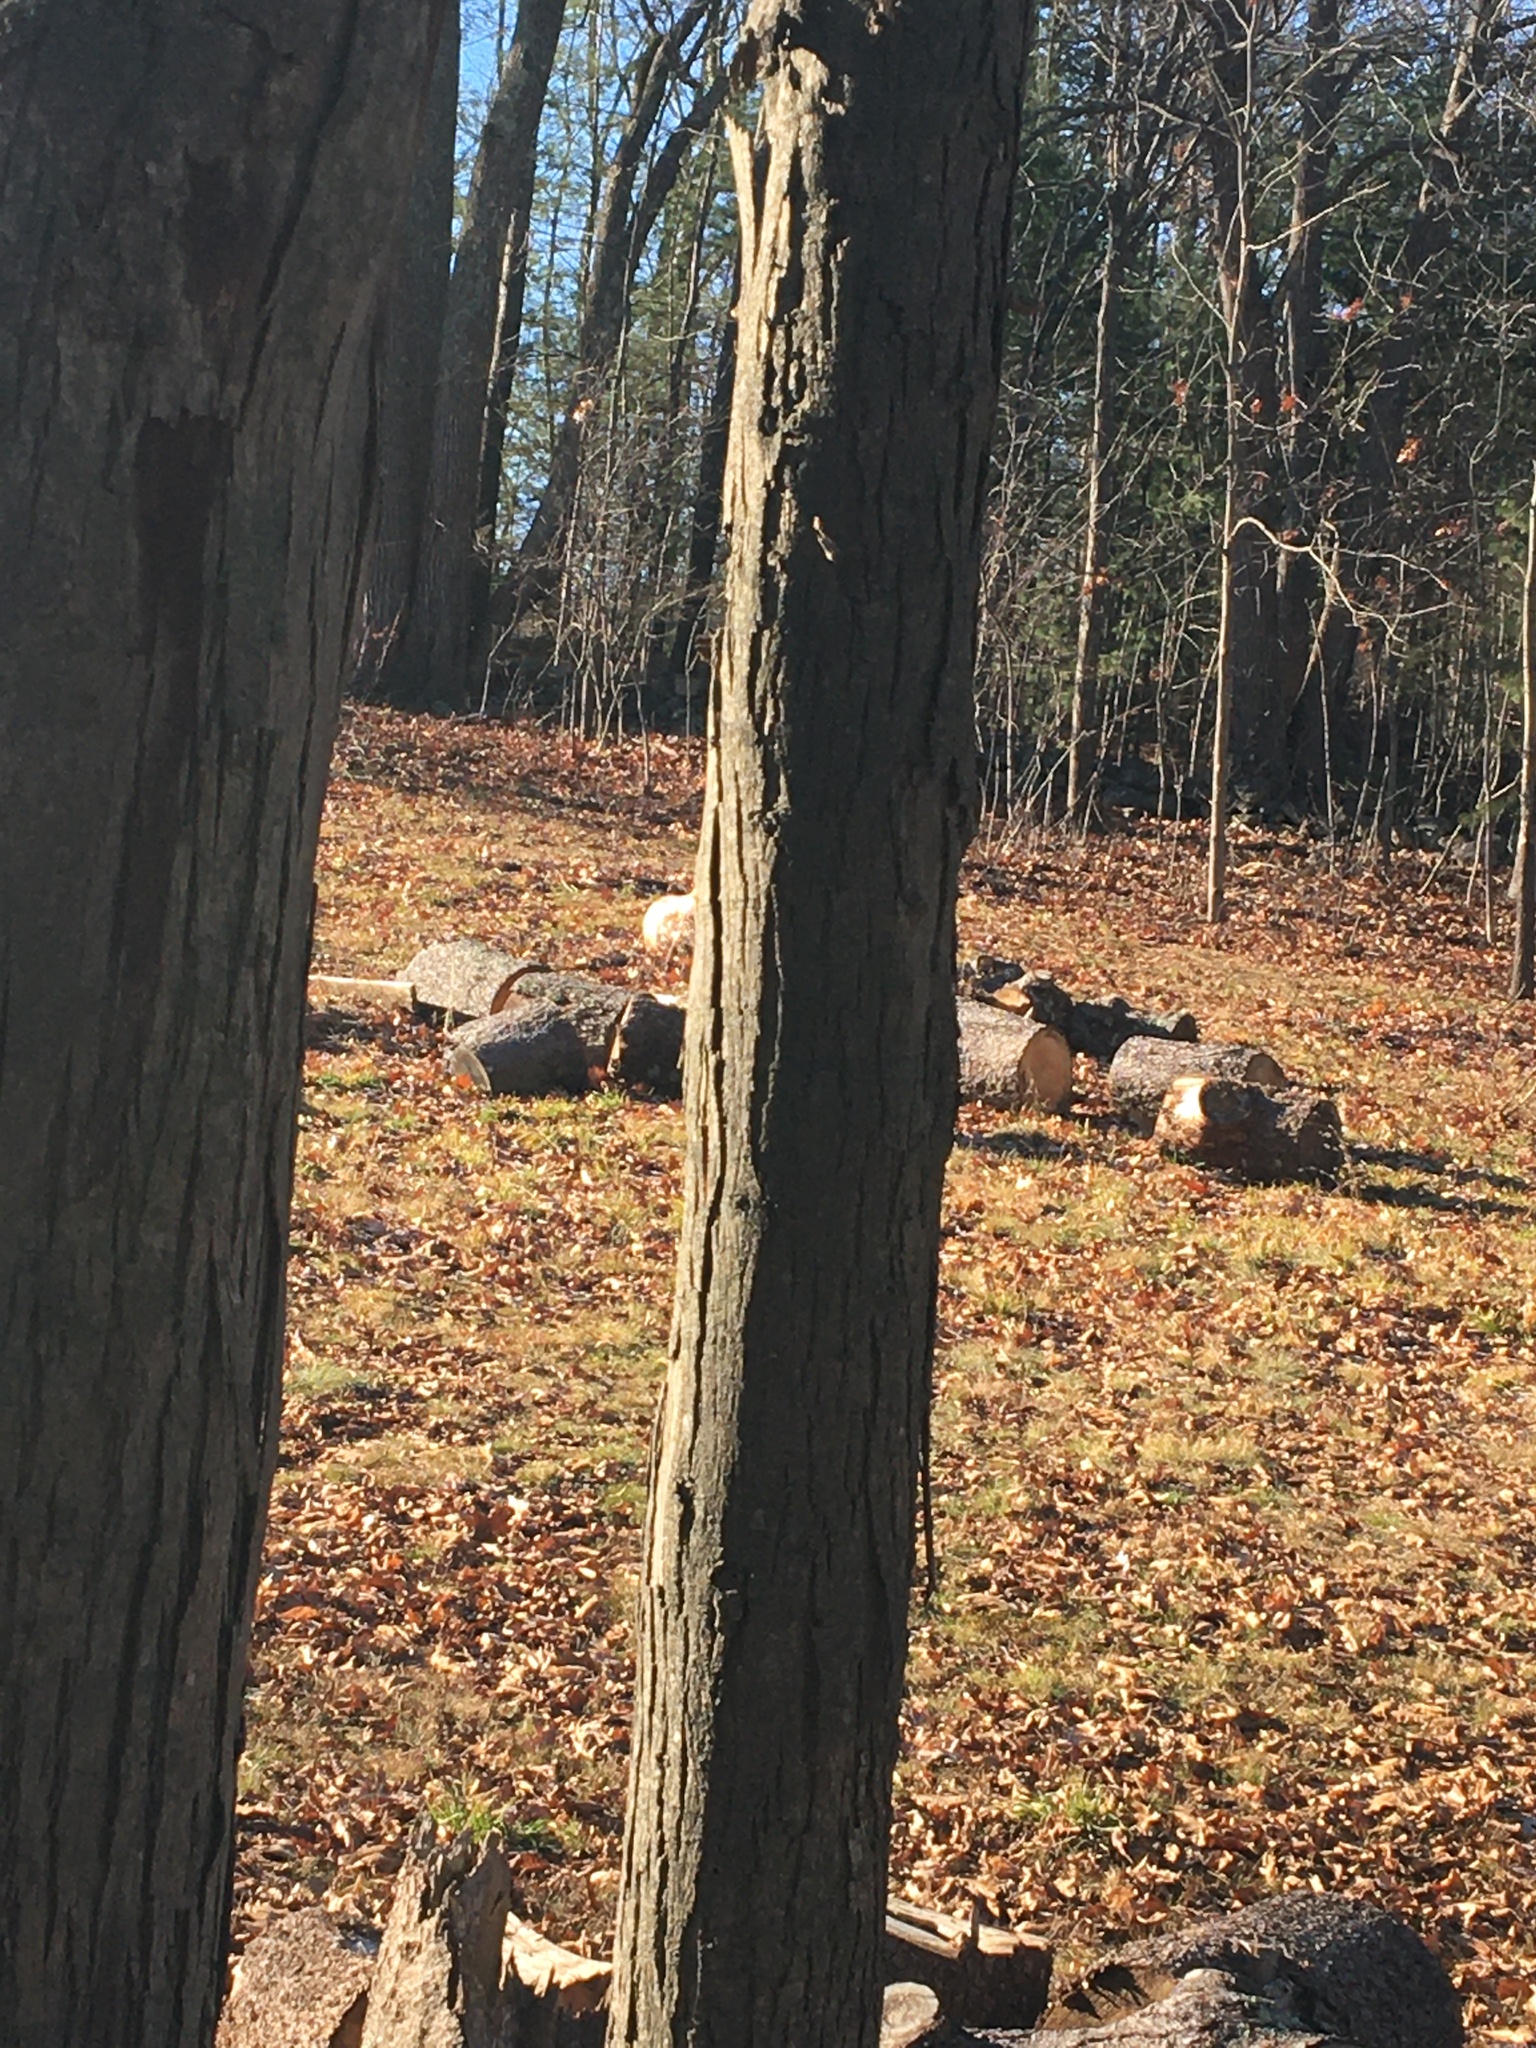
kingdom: Plantae
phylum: Tracheophyta
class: Magnoliopsida
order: Fagales
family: Juglandaceae
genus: Carya
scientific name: Carya ovata
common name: Shagbark hickory
